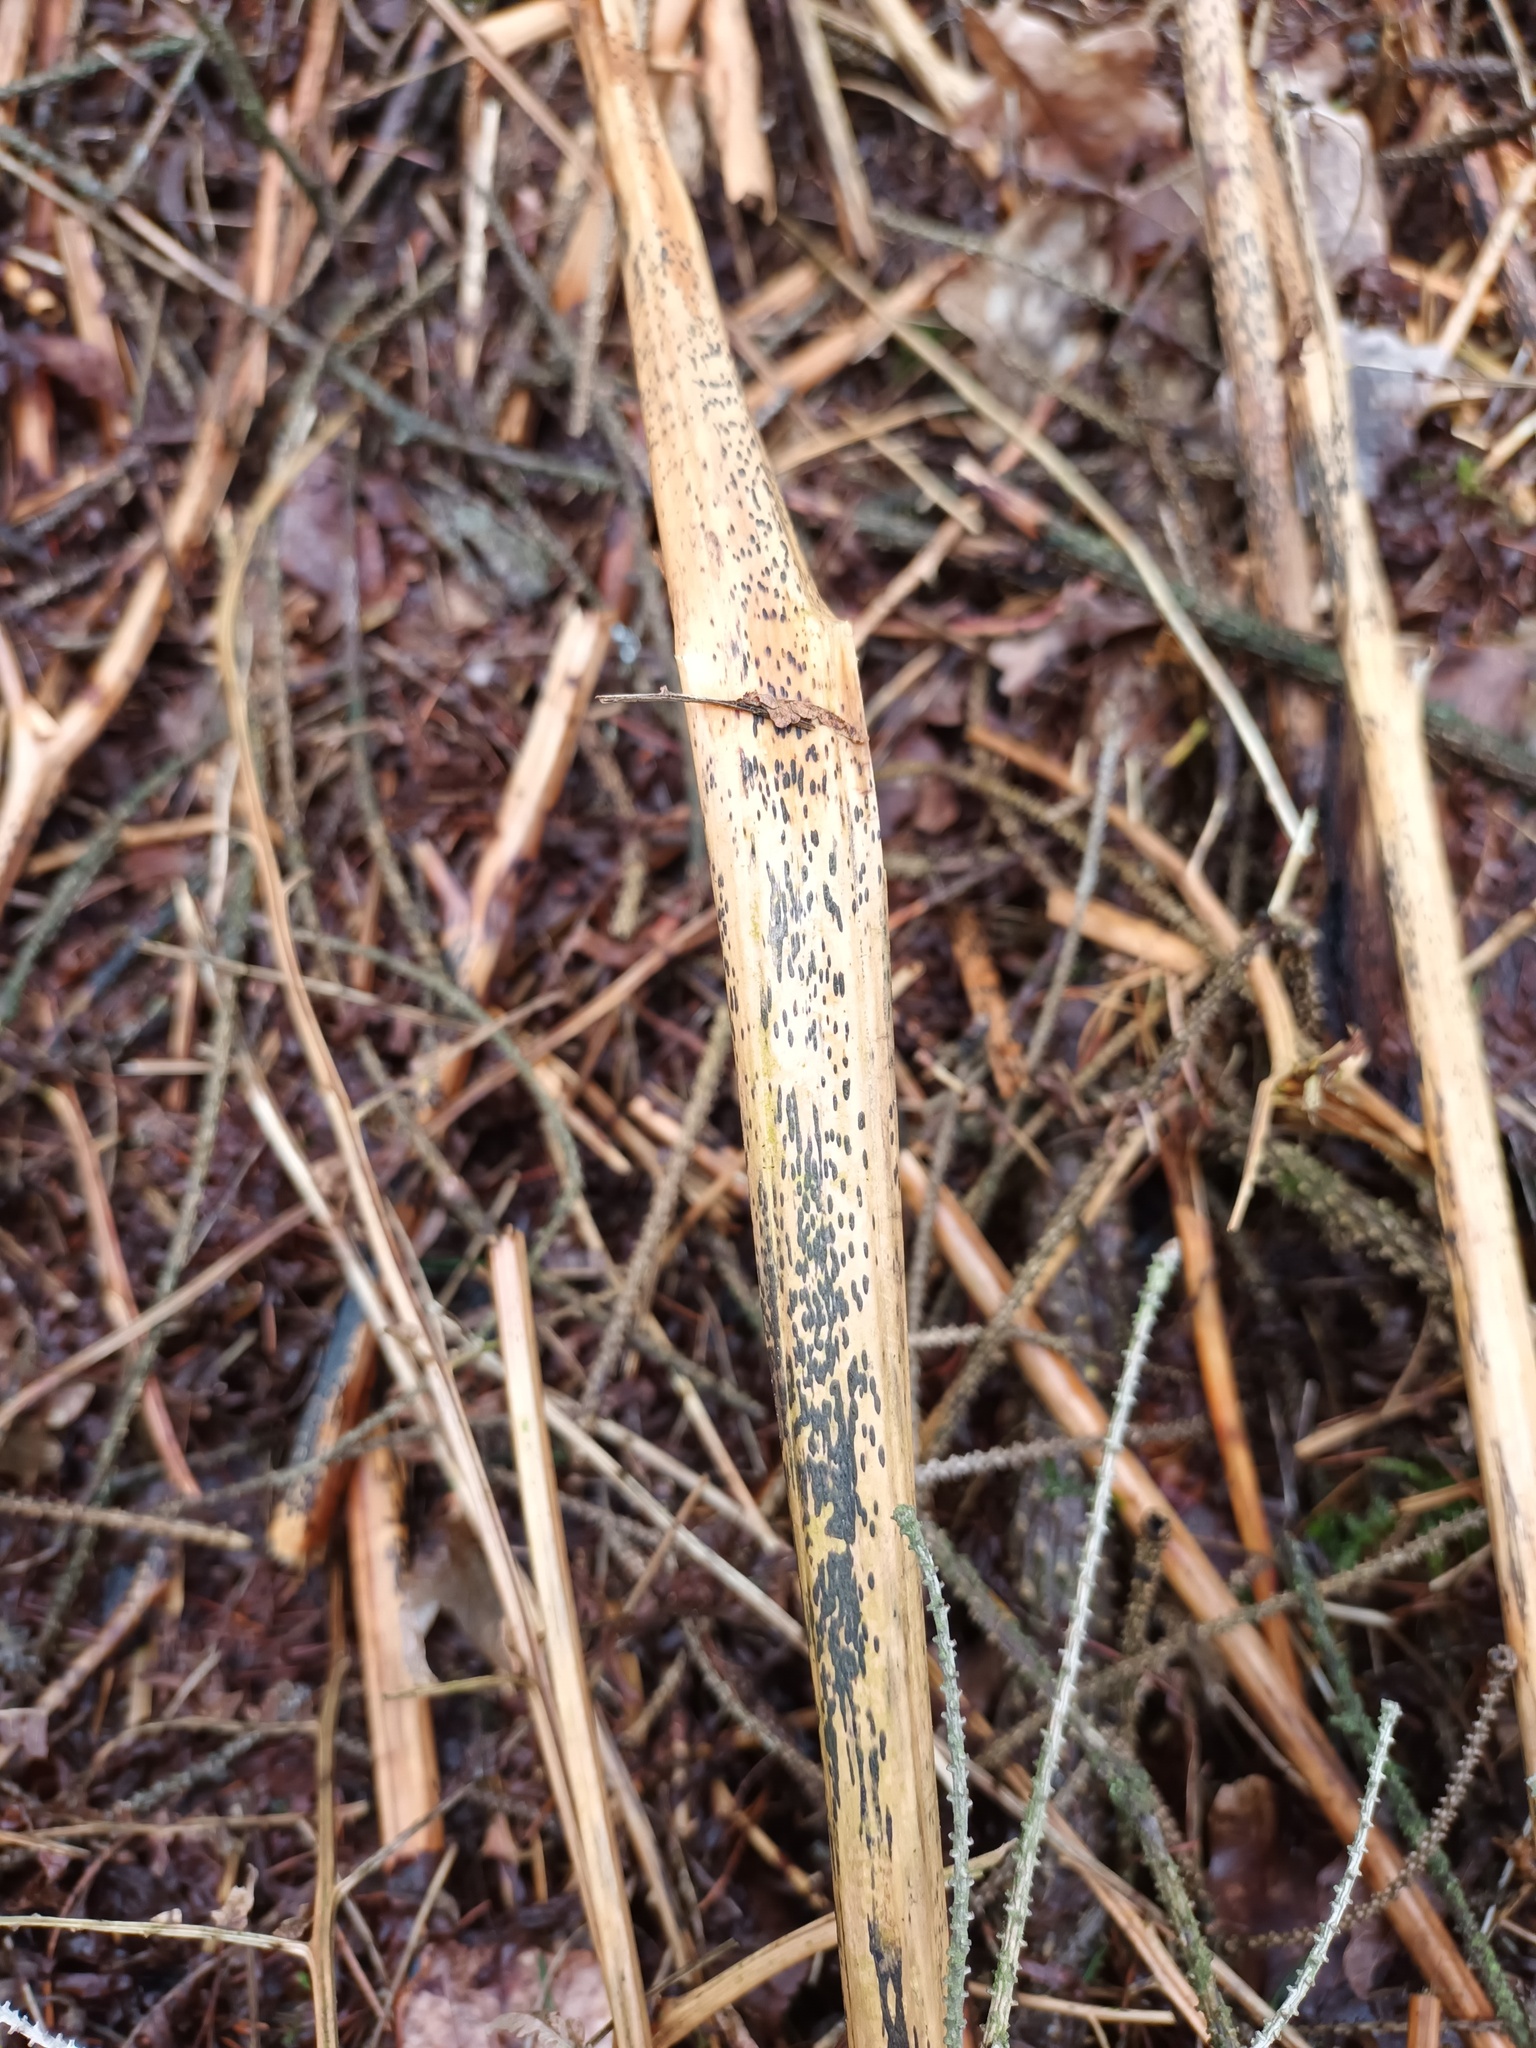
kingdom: Fungi
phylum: Ascomycota
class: Dothideomycetes
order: Pleosporales
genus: Rhopographus
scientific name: Rhopographus filicinus
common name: Bracken map
